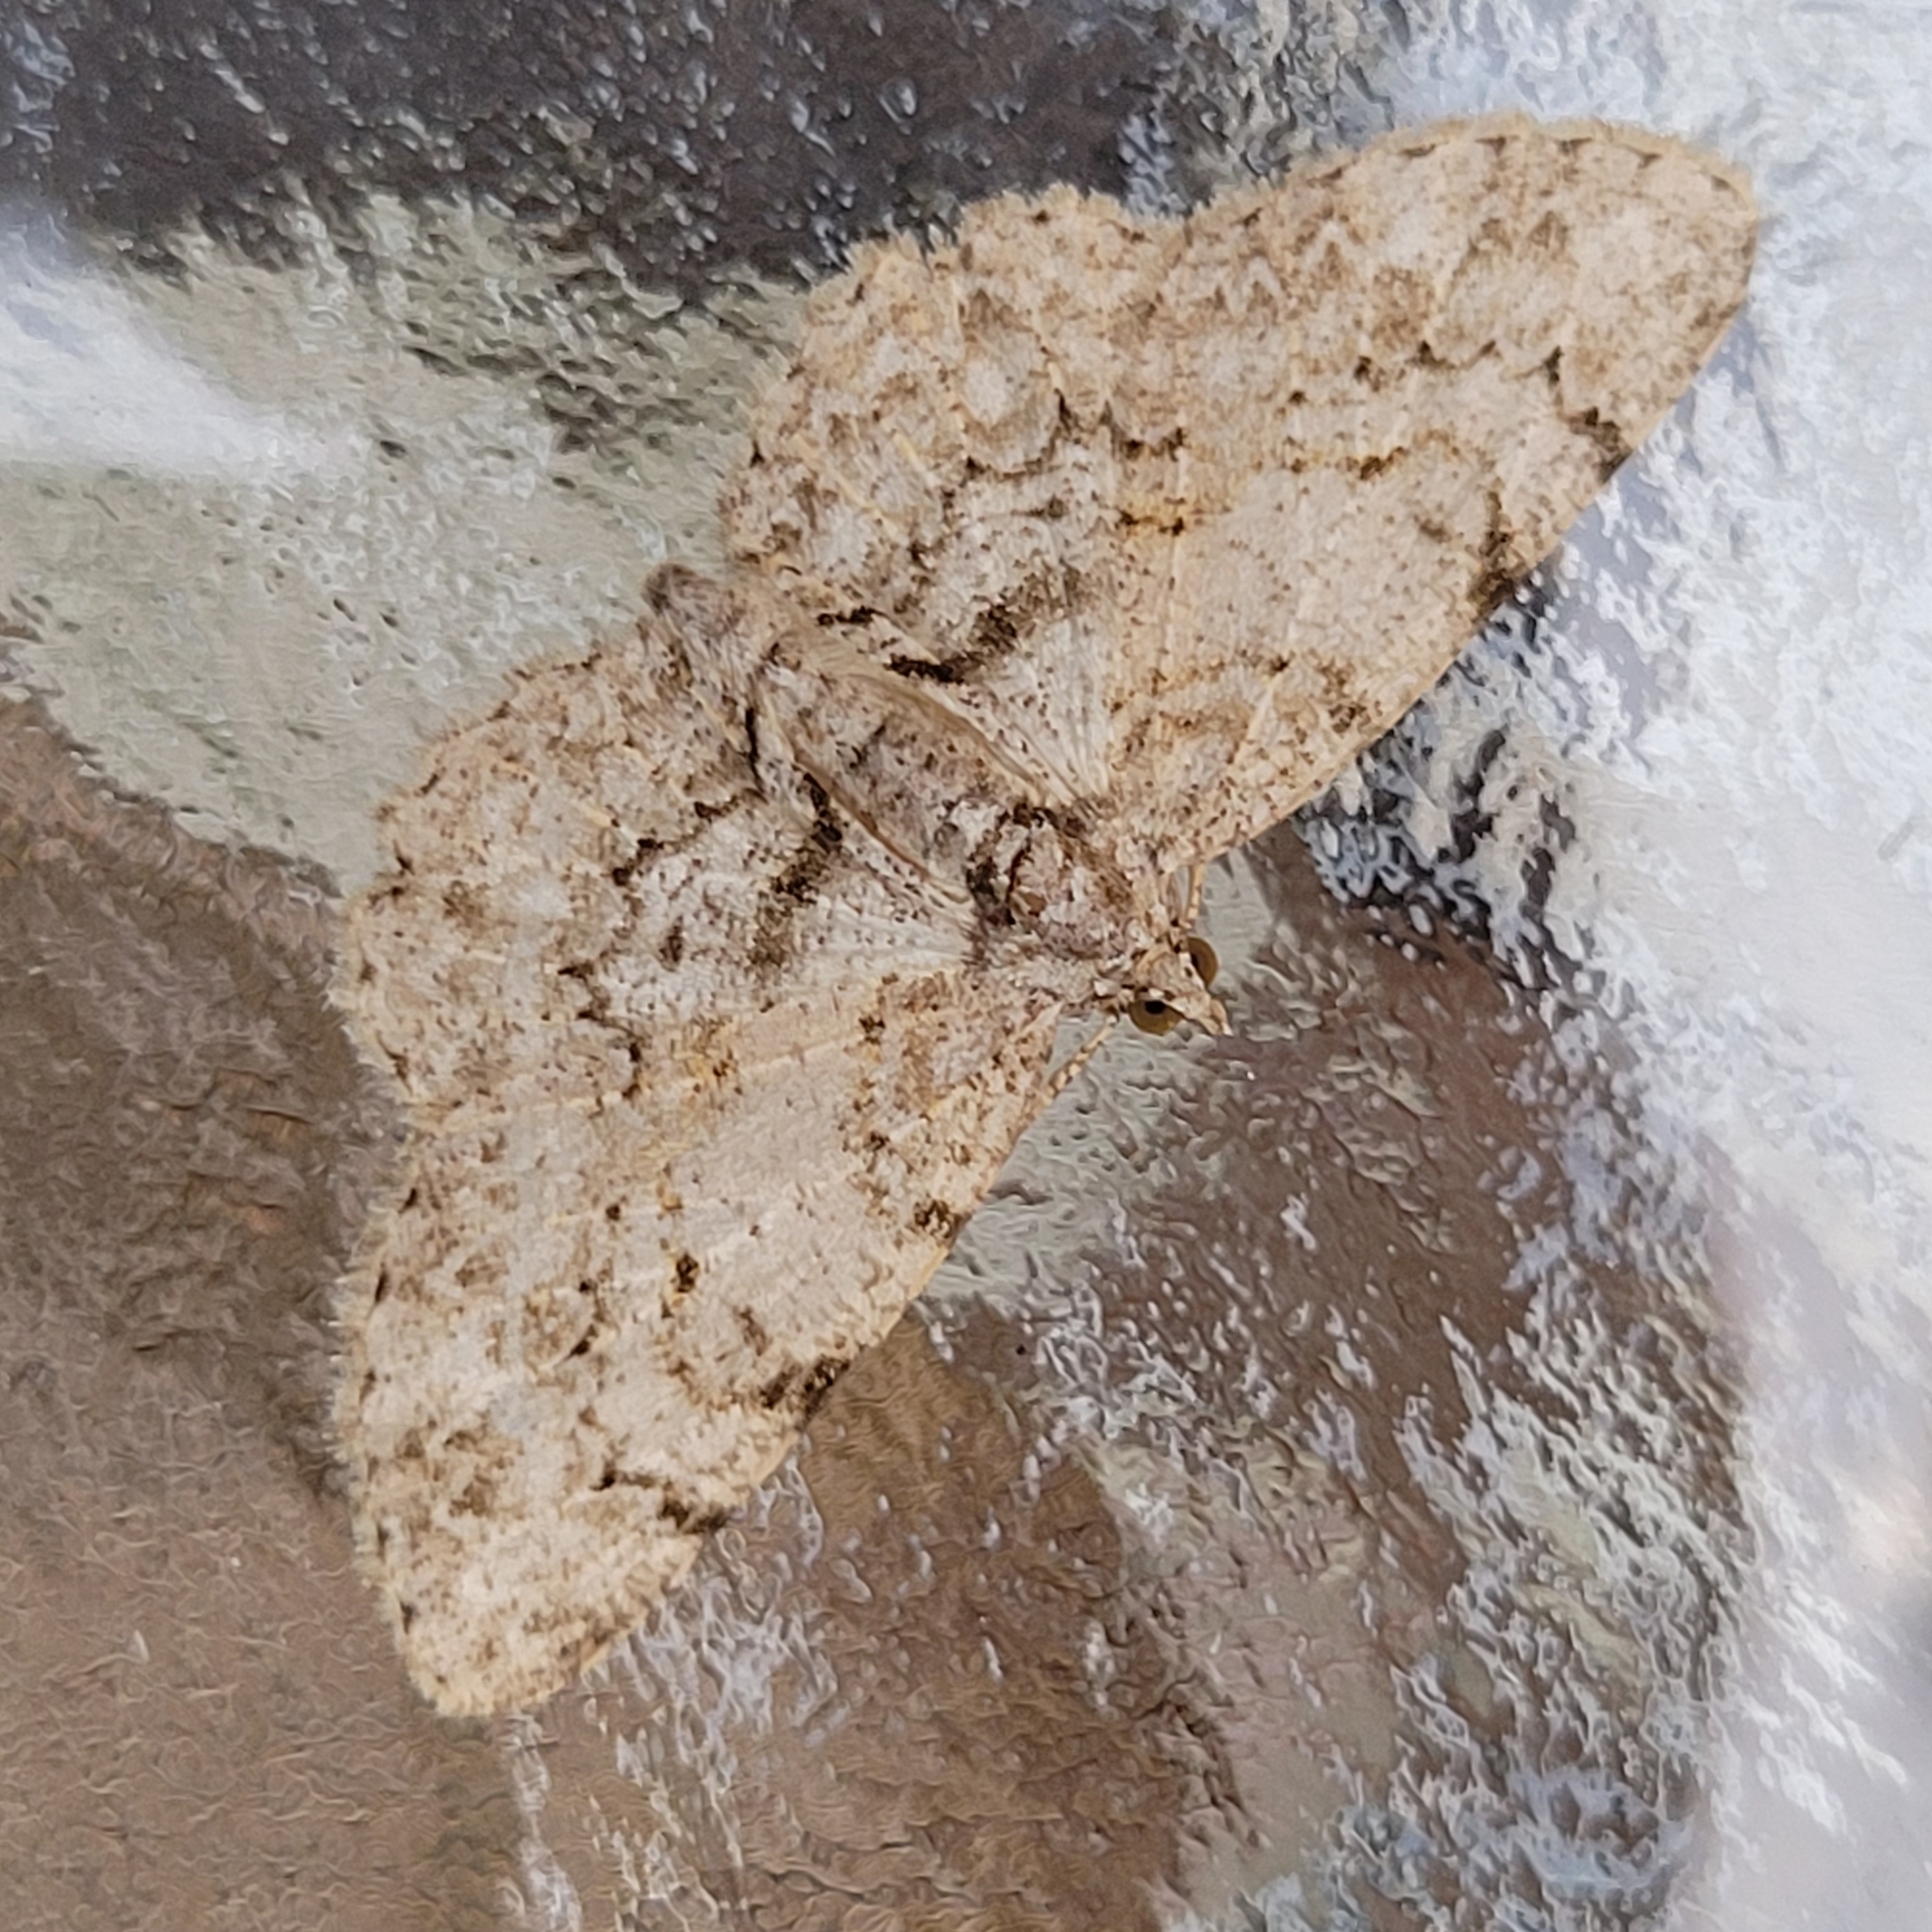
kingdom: Animalia
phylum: Arthropoda
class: Insecta
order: Lepidoptera
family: Geometridae
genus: Protoboarmia
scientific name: Protoboarmia porcelaria
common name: Porcelain gray
